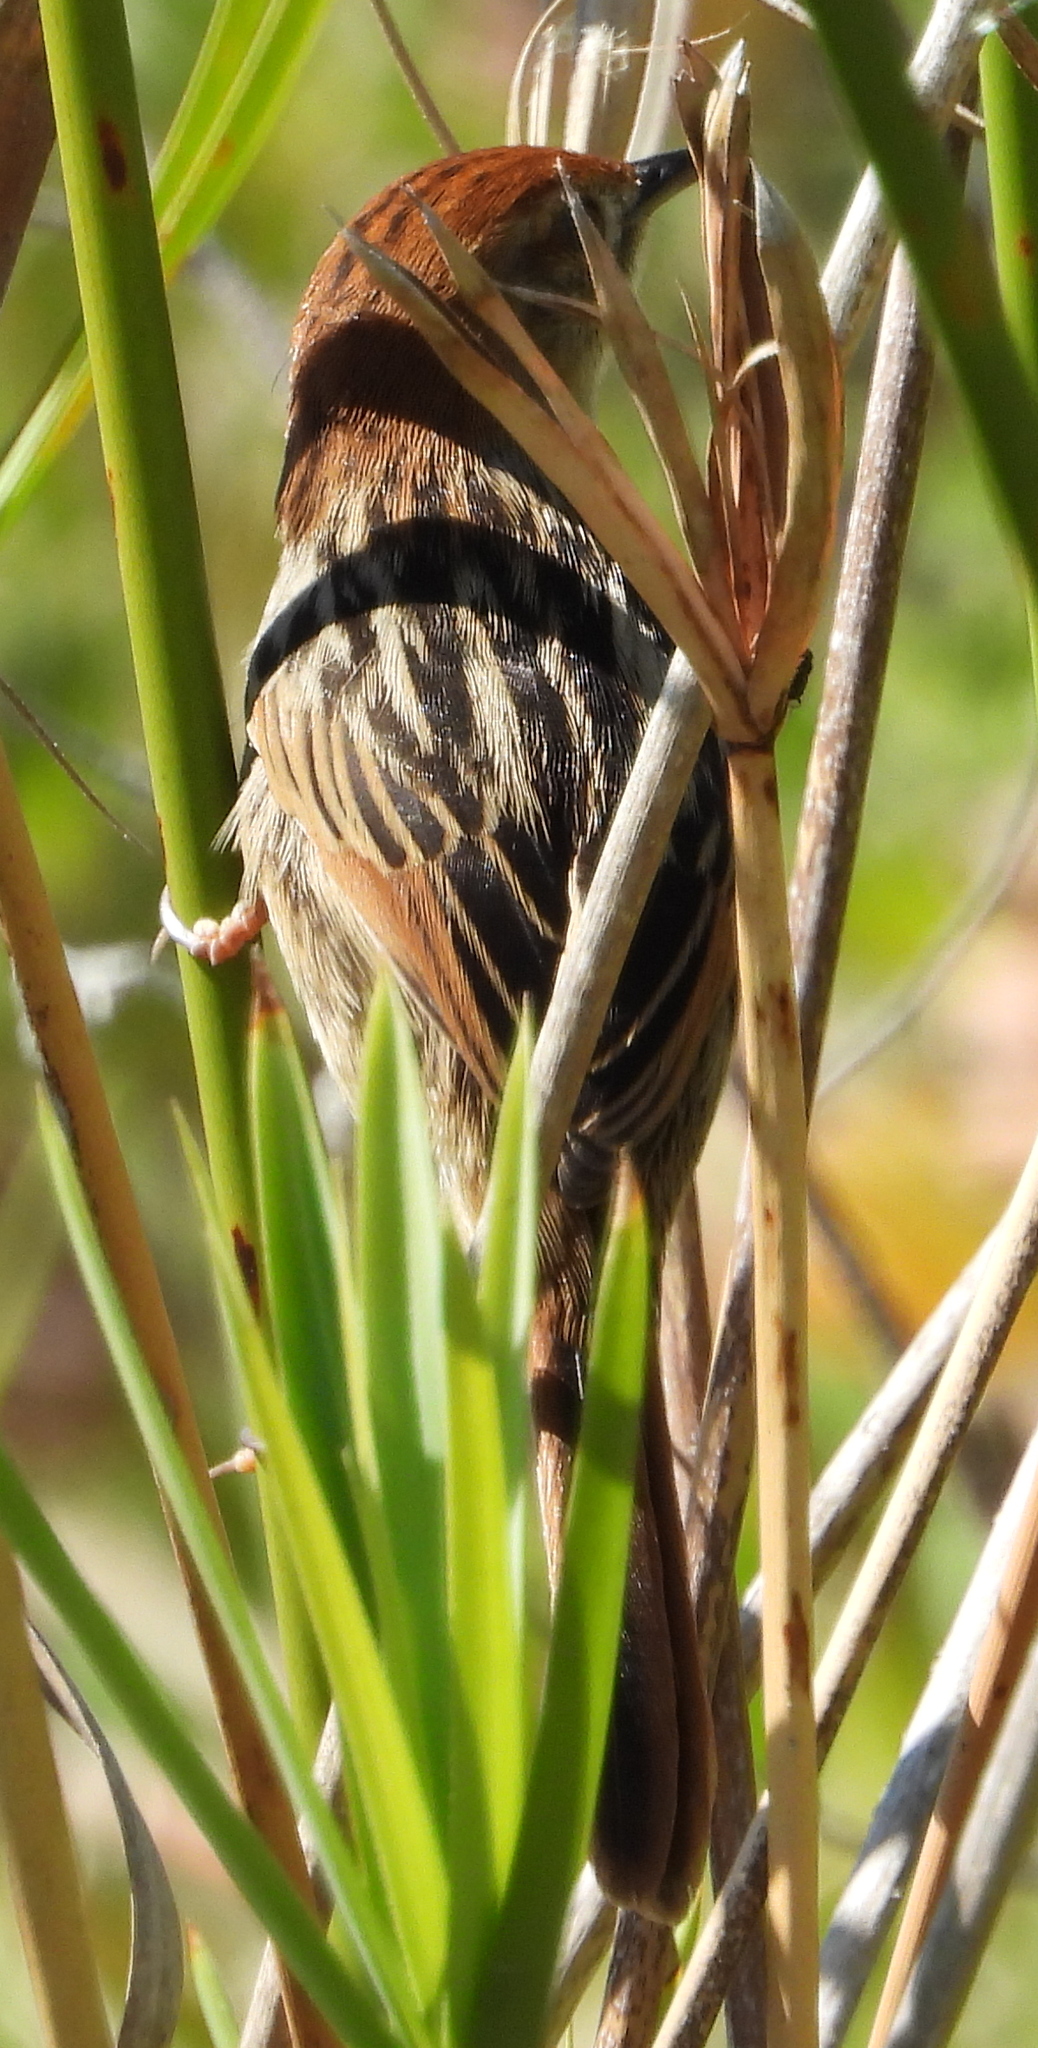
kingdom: Animalia
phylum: Chordata
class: Aves
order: Passeriformes
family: Cisticolidae
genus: Cisticola
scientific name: Cisticola tinniens
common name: Levaillant's cisticola
